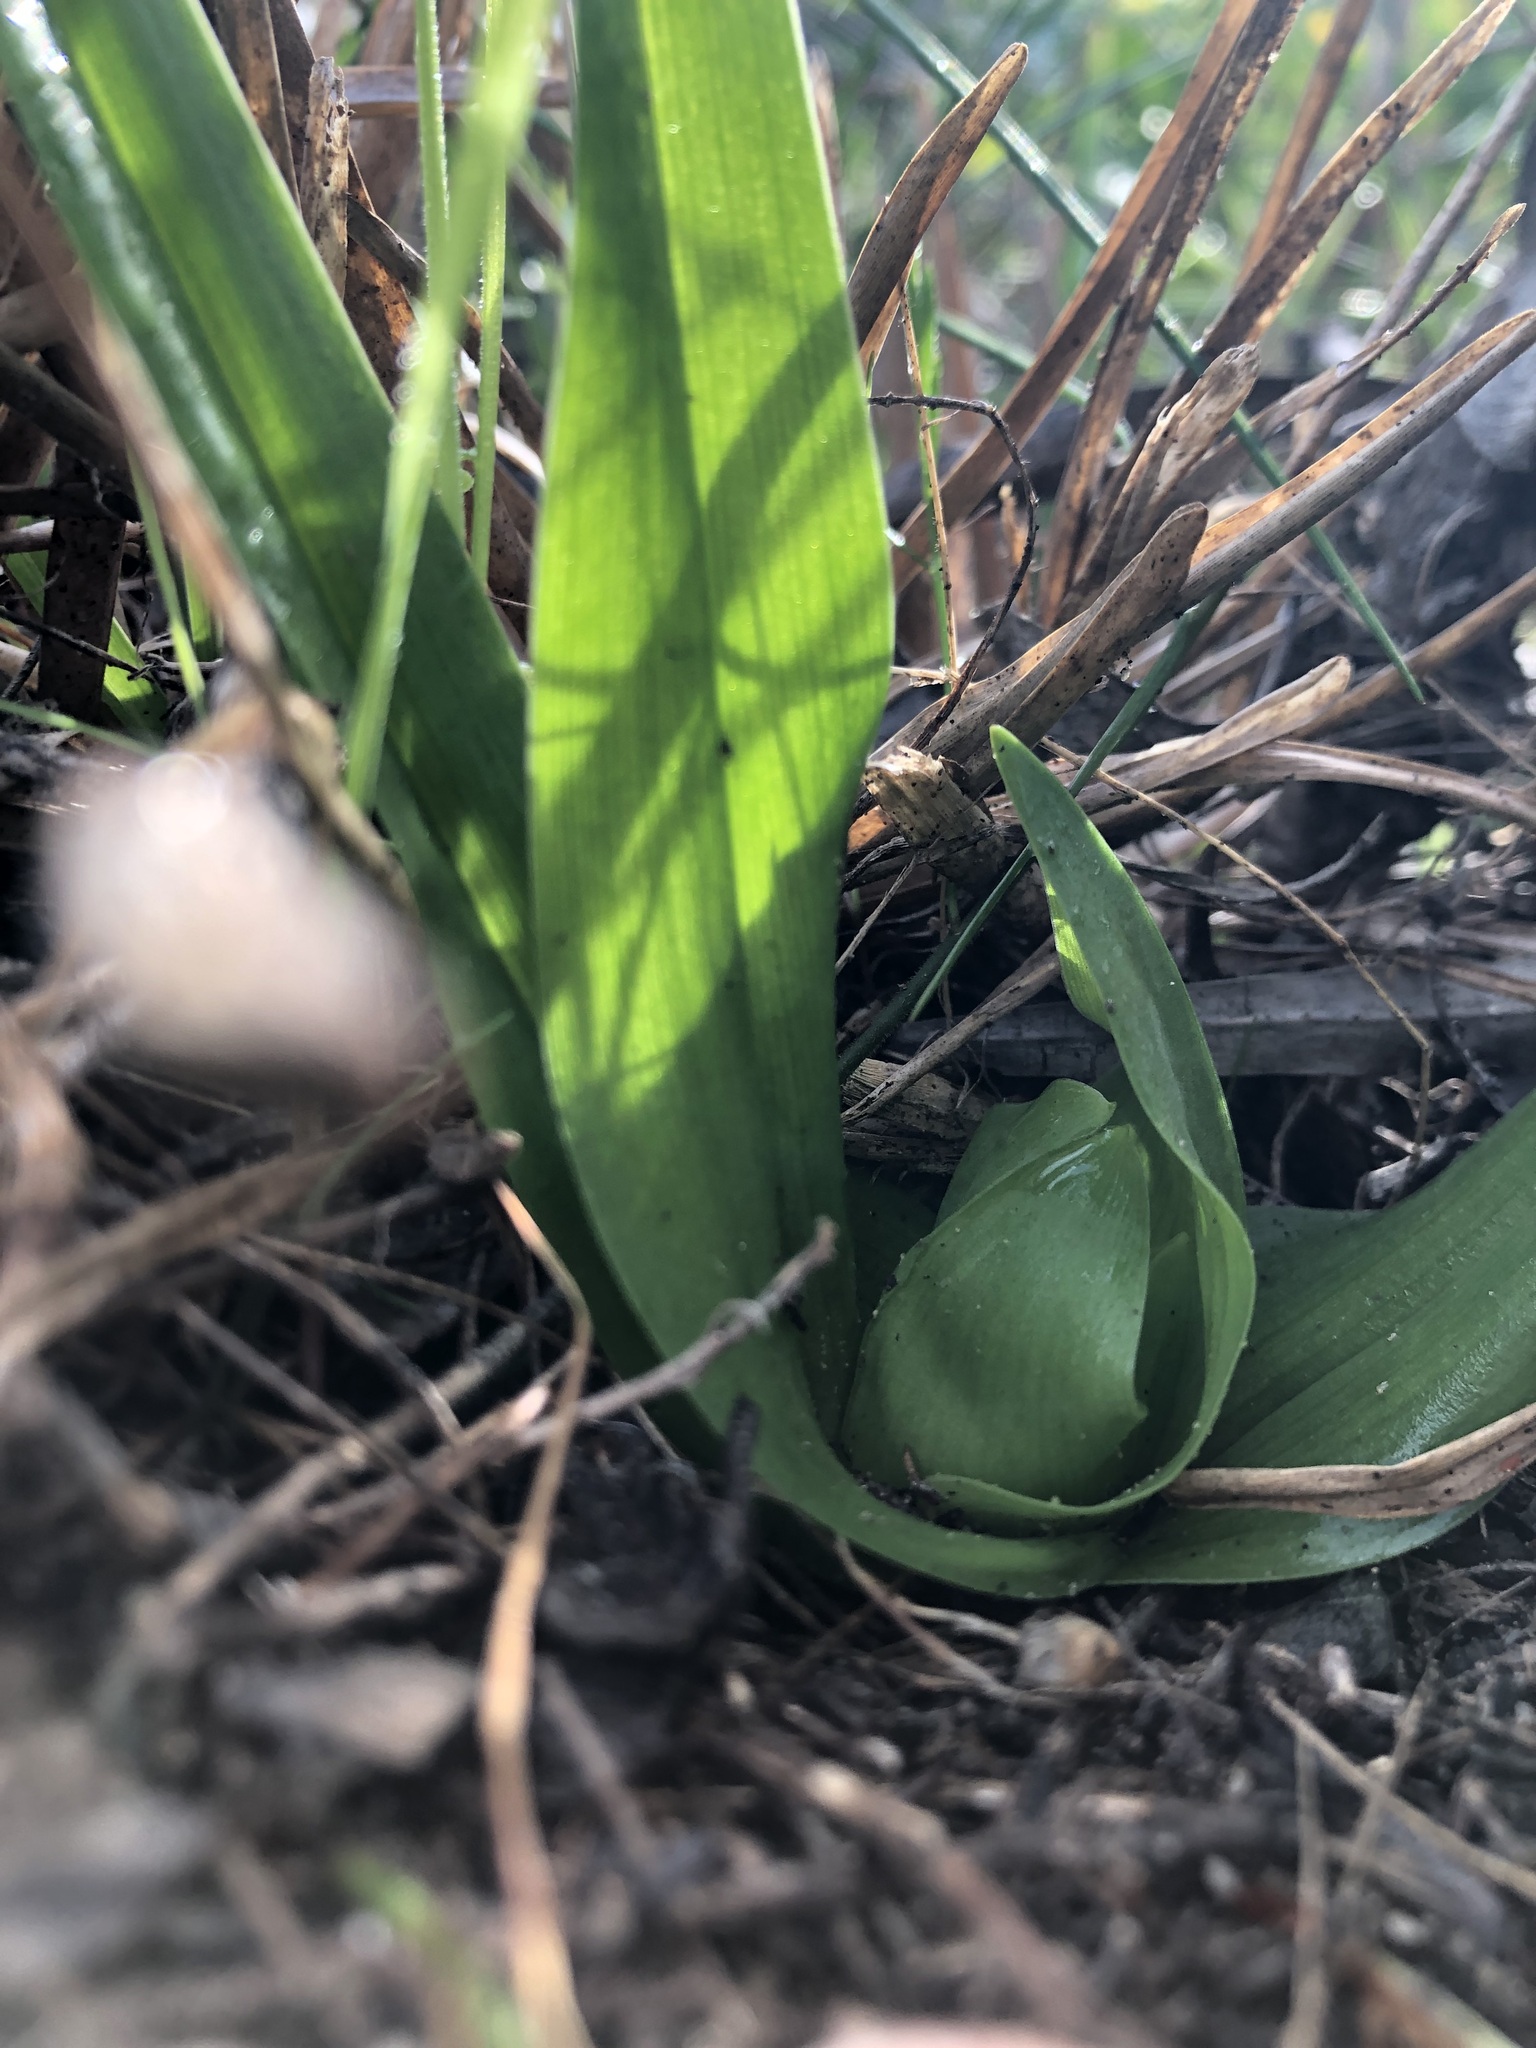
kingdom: Plantae
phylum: Tracheophyta
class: Liliopsida
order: Liliales
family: Colchicaceae
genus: Colchicum
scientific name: Colchicum eucomoides
